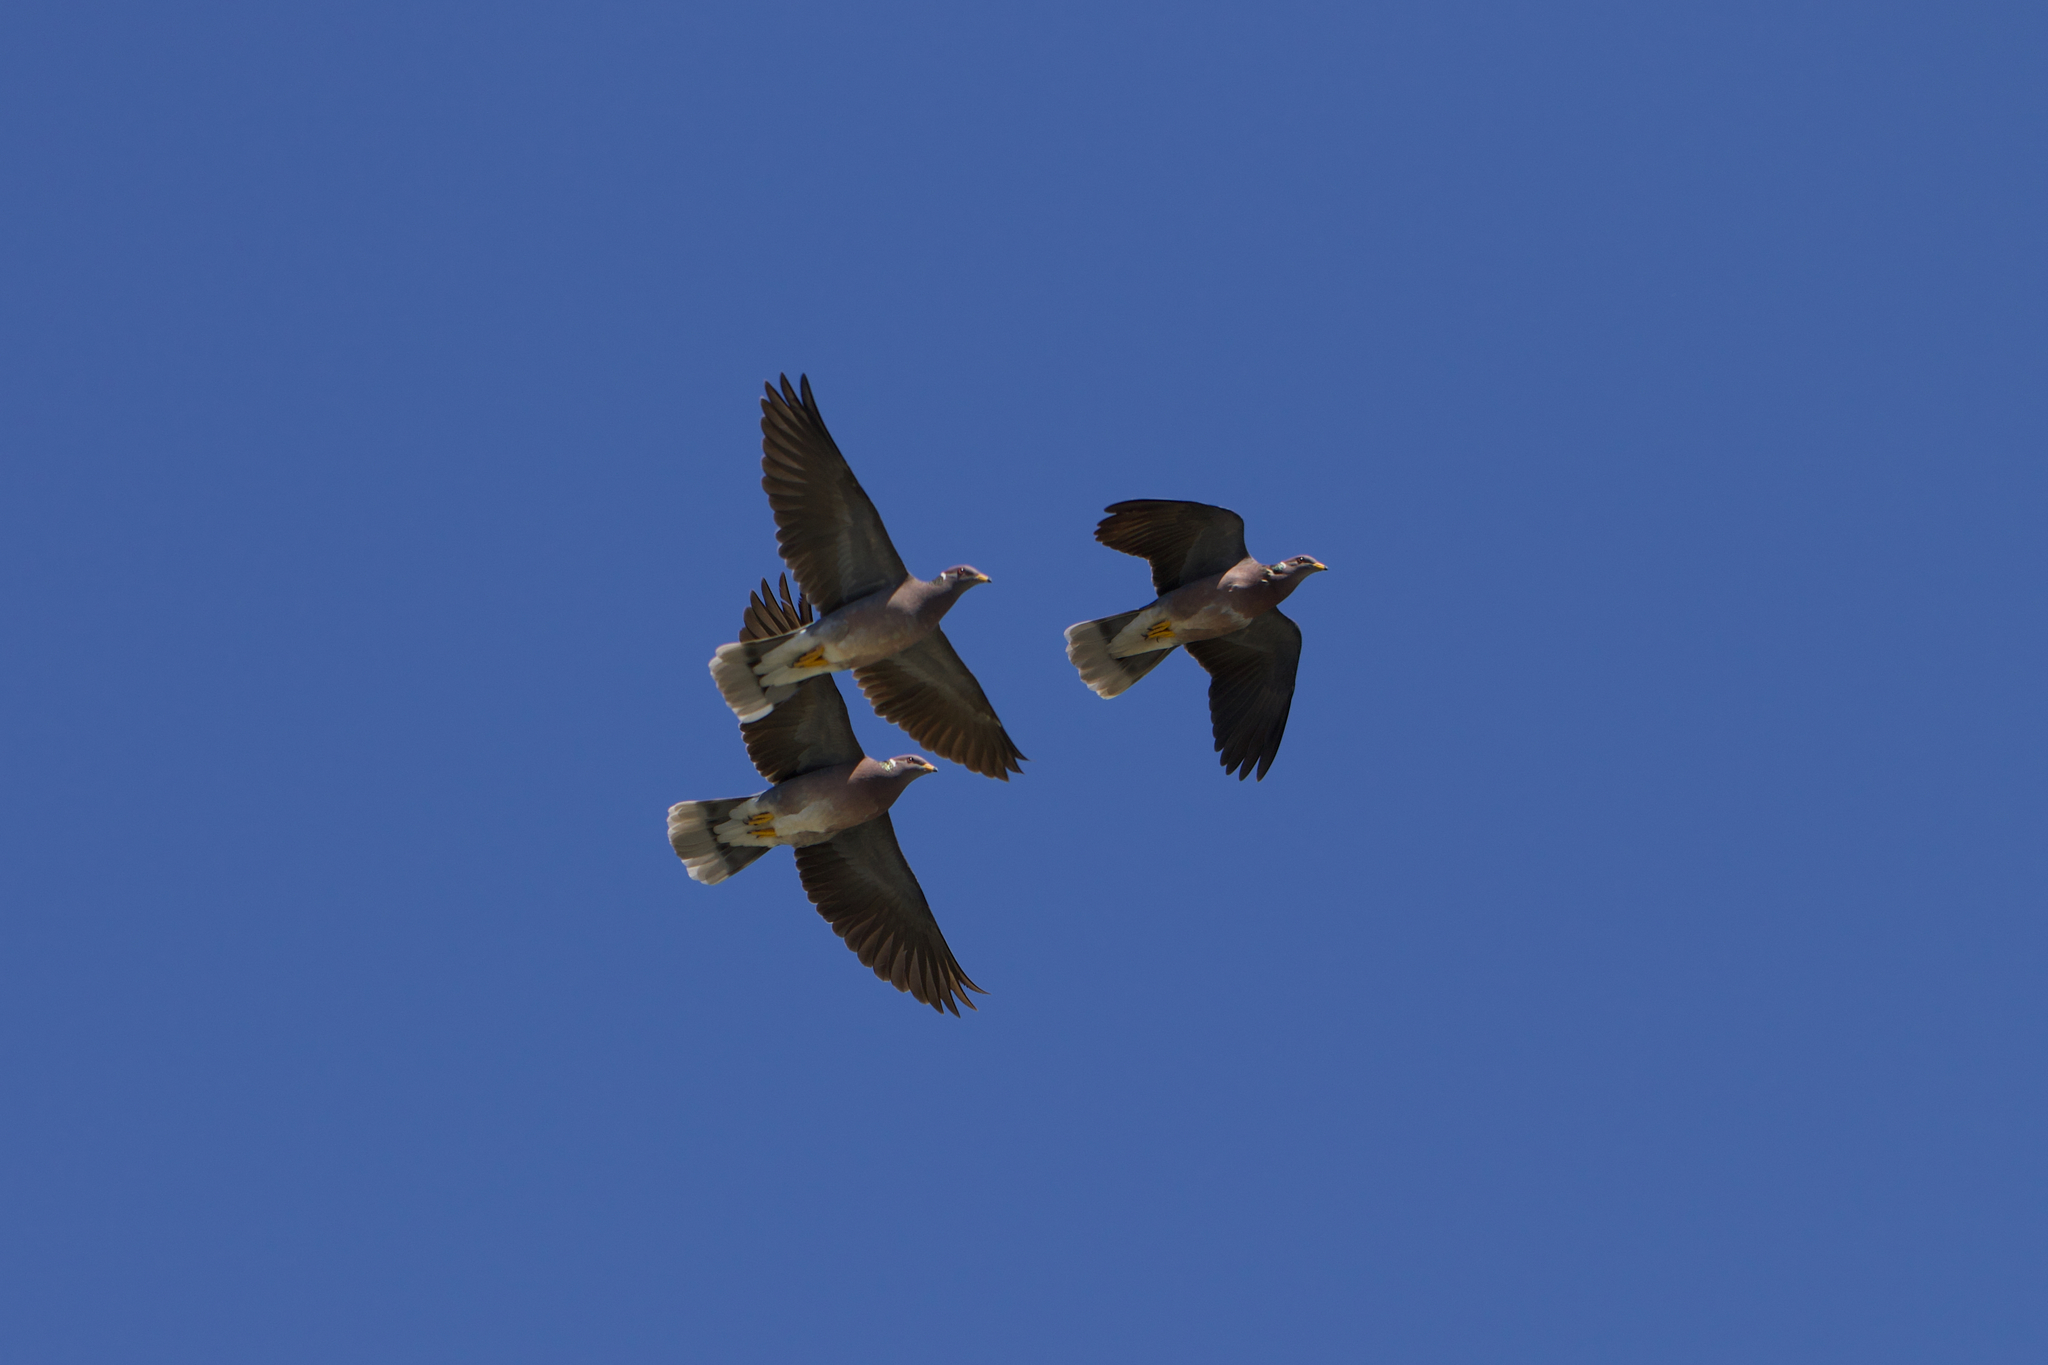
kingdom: Animalia
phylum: Chordata
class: Aves
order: Columbiformes
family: Columbidae
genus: Patagioenas
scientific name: Patagioenas fasciata
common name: Band-tailed pigeon
